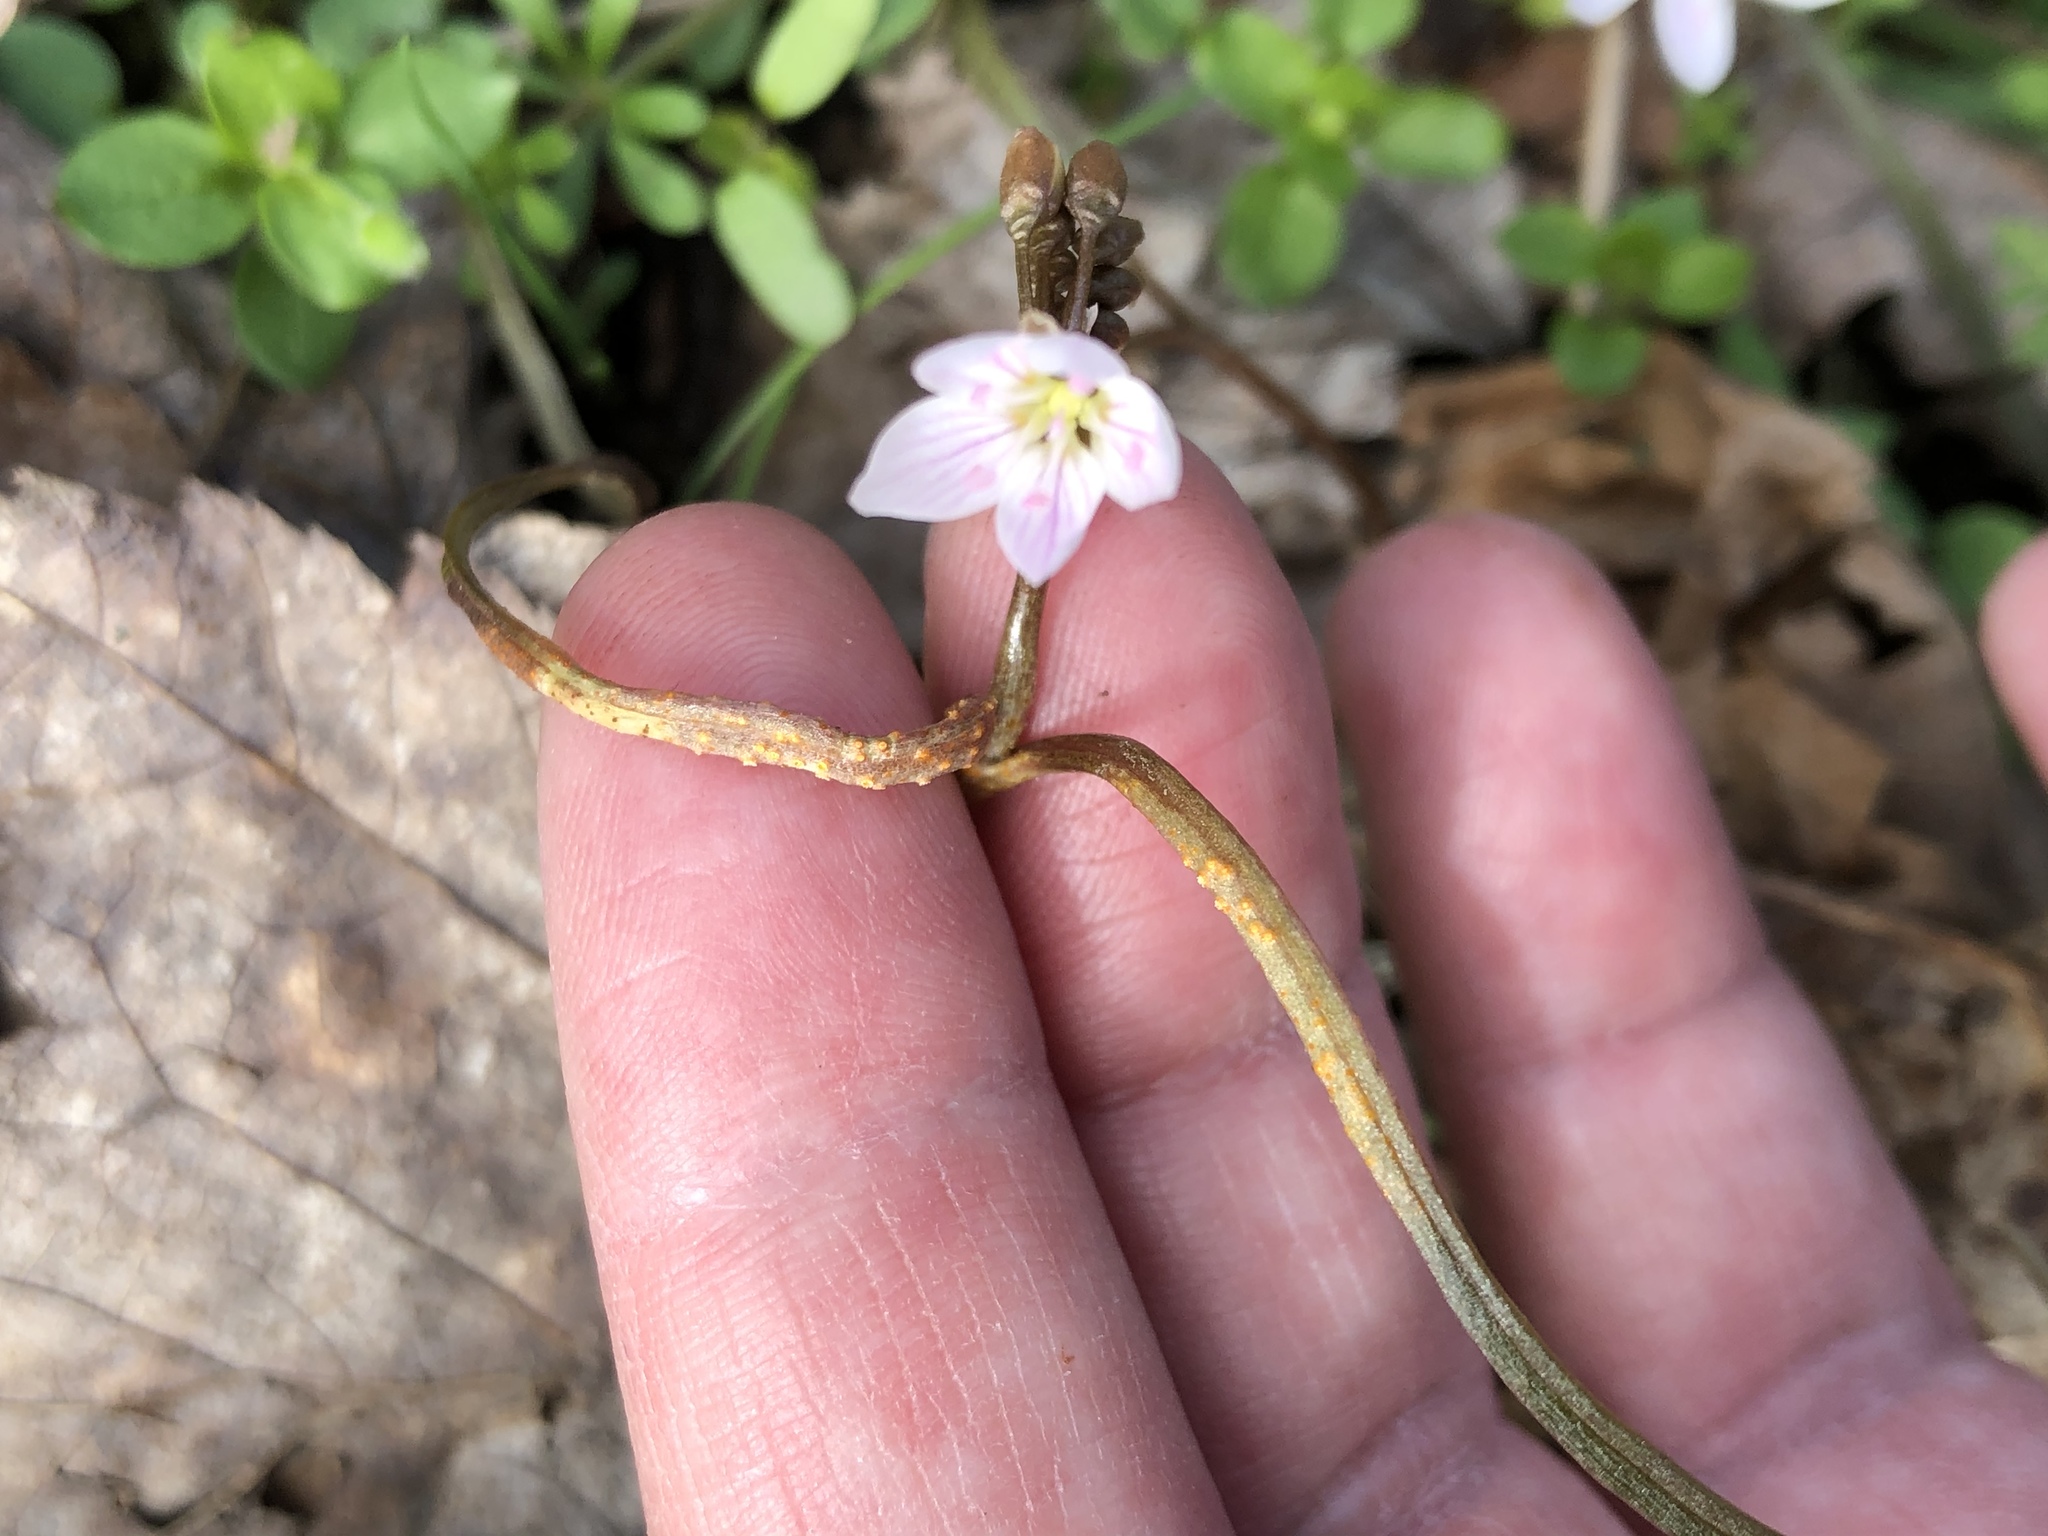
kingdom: Fungi
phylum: Basidiomycota
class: Pucciniomycetes
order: Pucciniales
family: Pucciniaceae
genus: Puccinia
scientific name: Puccinia mariae-wilsoniae
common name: Spring beauty rust
